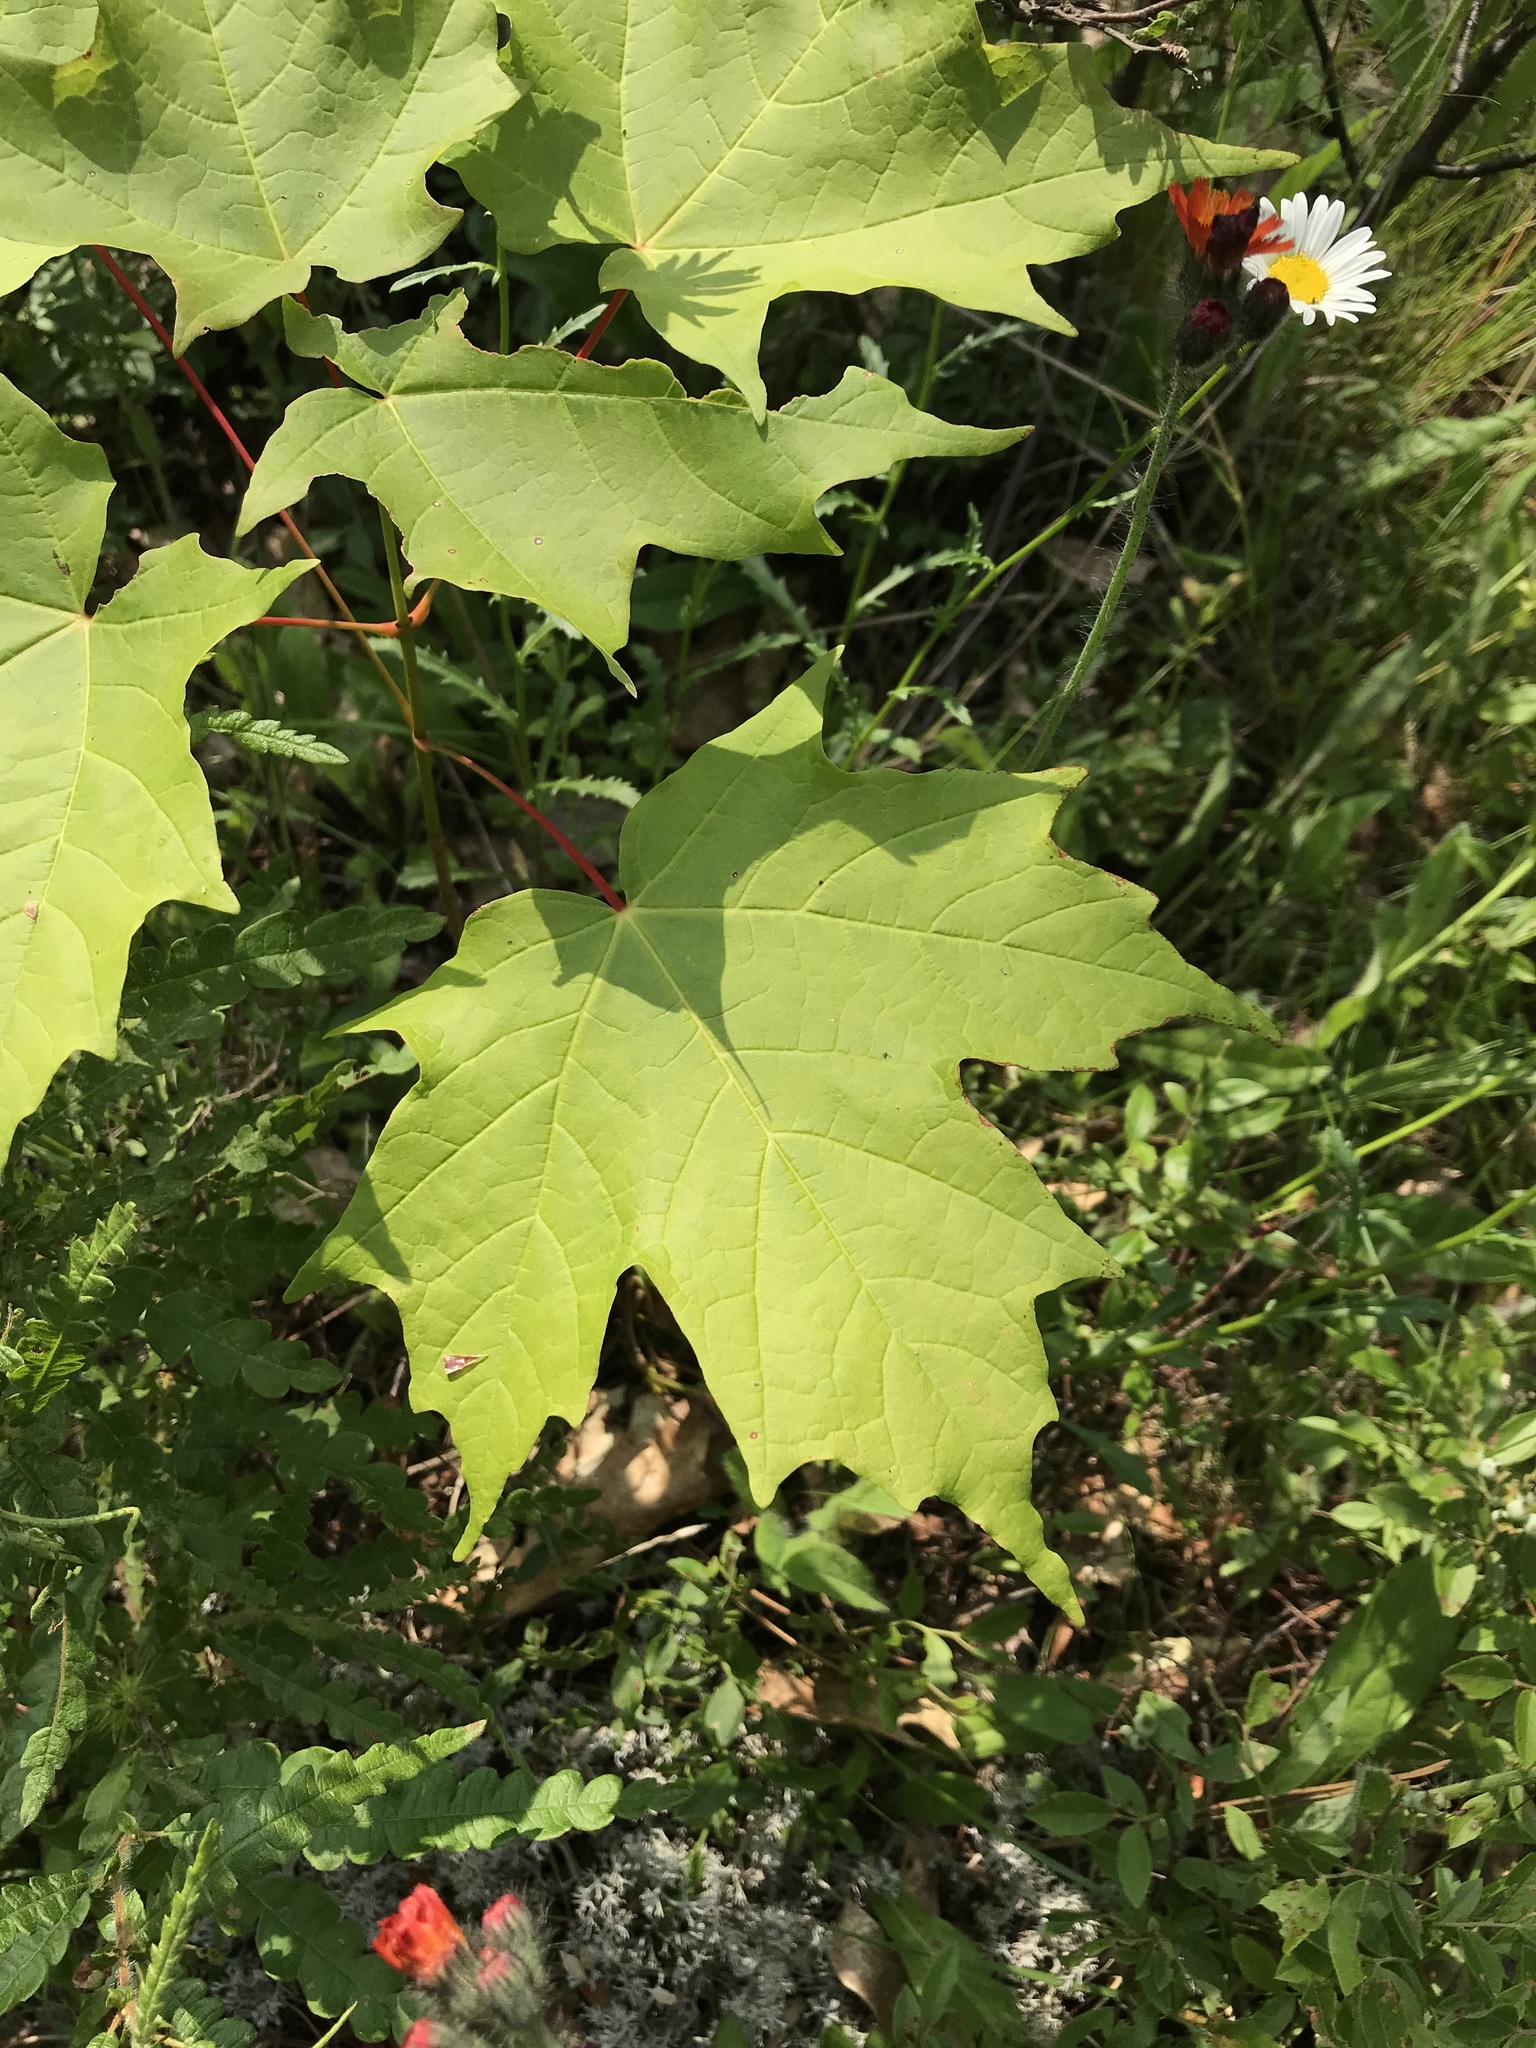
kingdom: Plantae
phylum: Tracheophyta
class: Magnoliopsida
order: Sapindales
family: Sapindaceae
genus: Acer
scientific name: Acer saccharum
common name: Sugar maple
